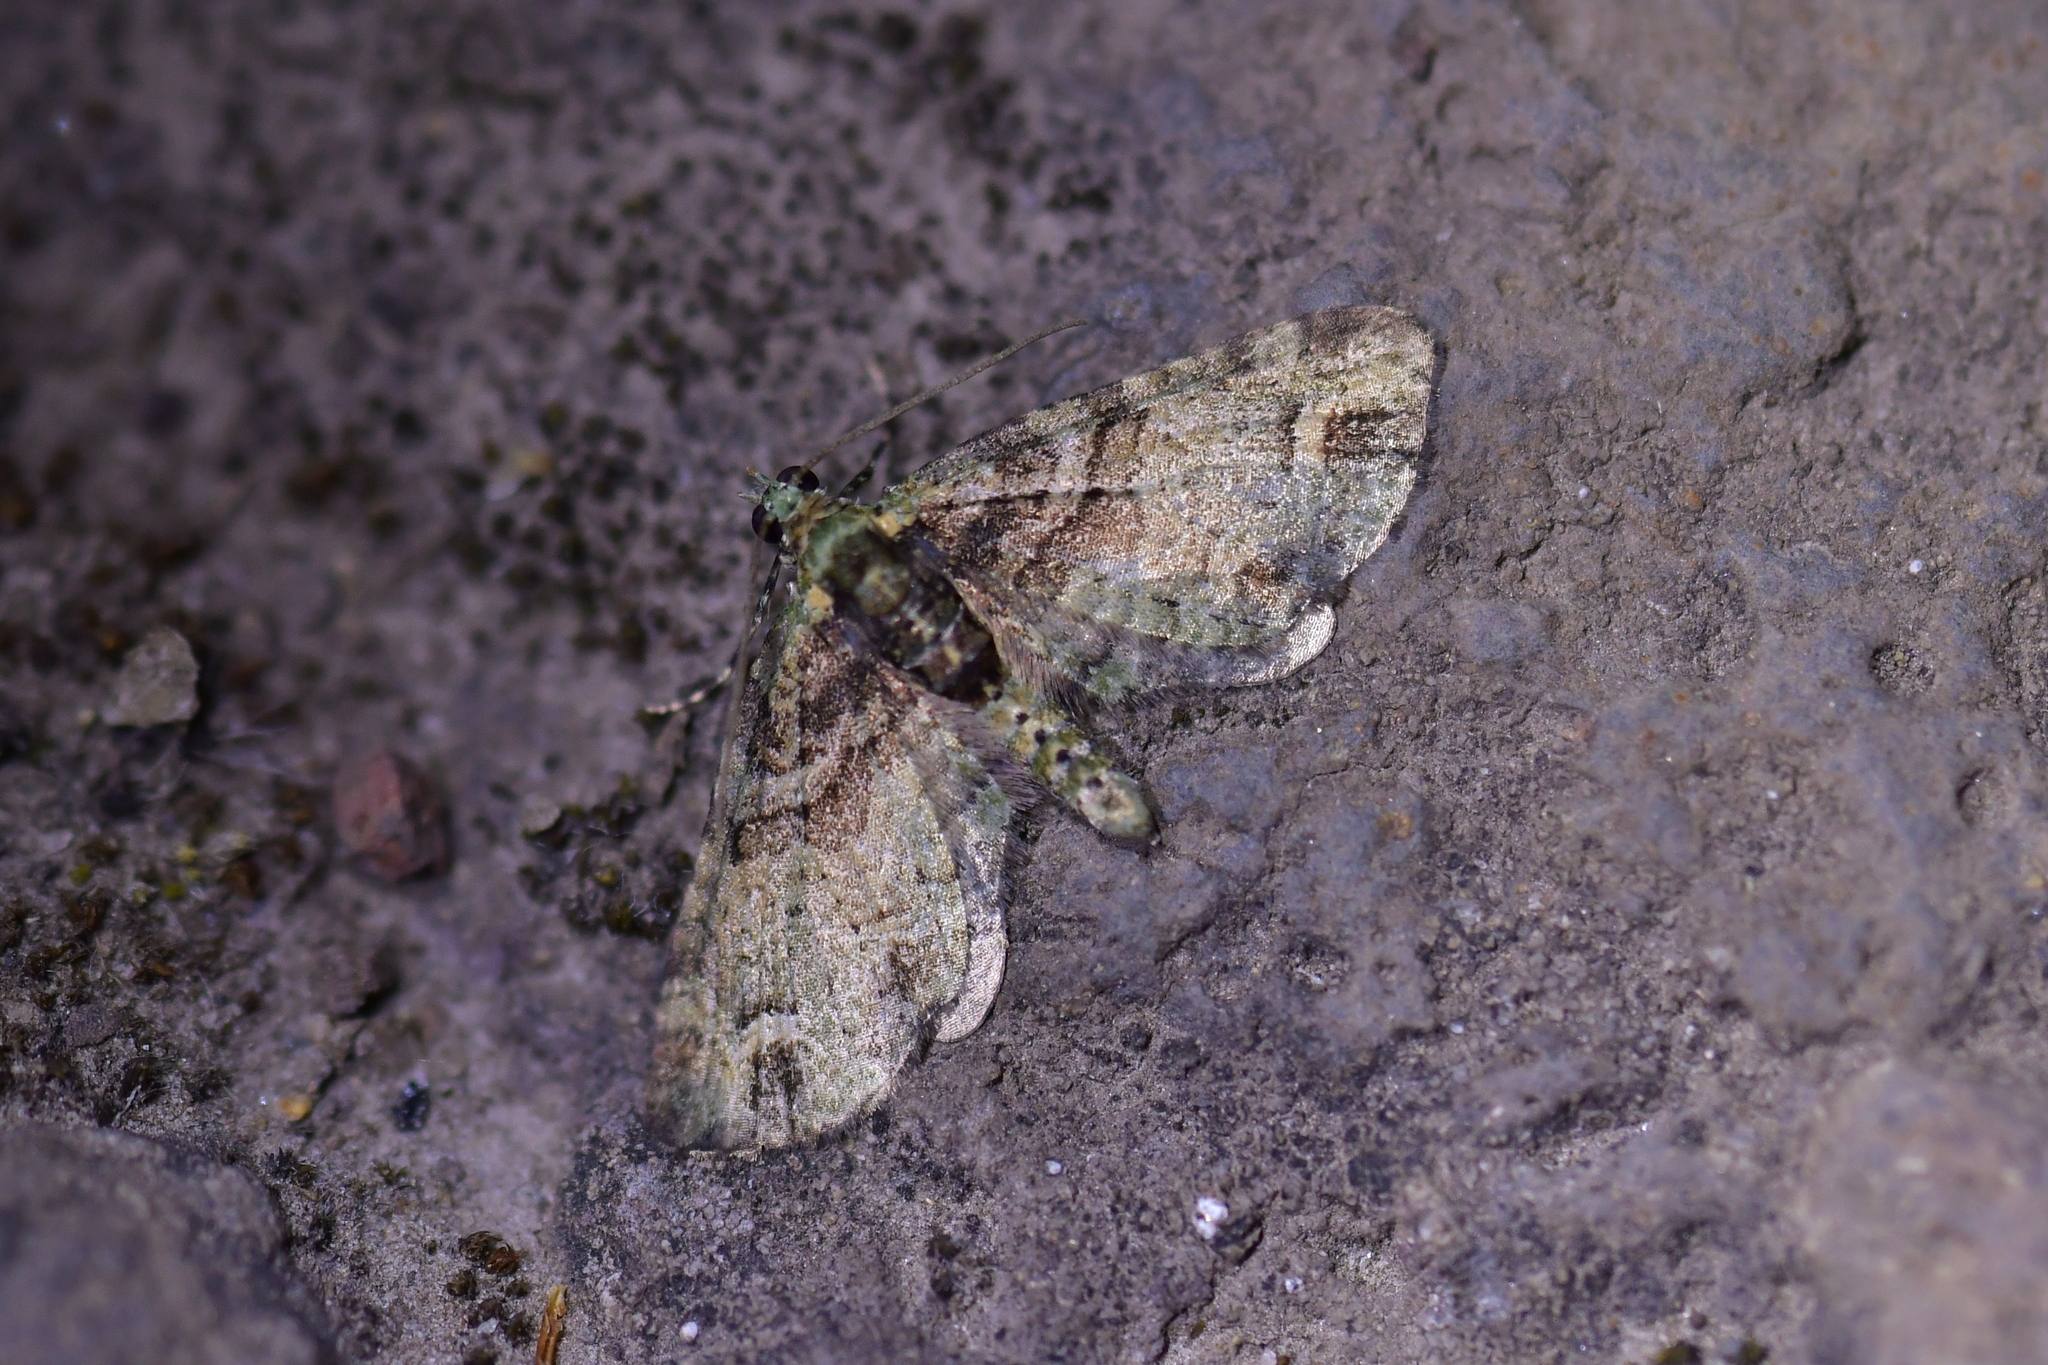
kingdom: Animalia
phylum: Arthropoda
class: Insecta
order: Lepidoptera
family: Geometridae
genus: Idaea
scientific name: Idaea mutanda
